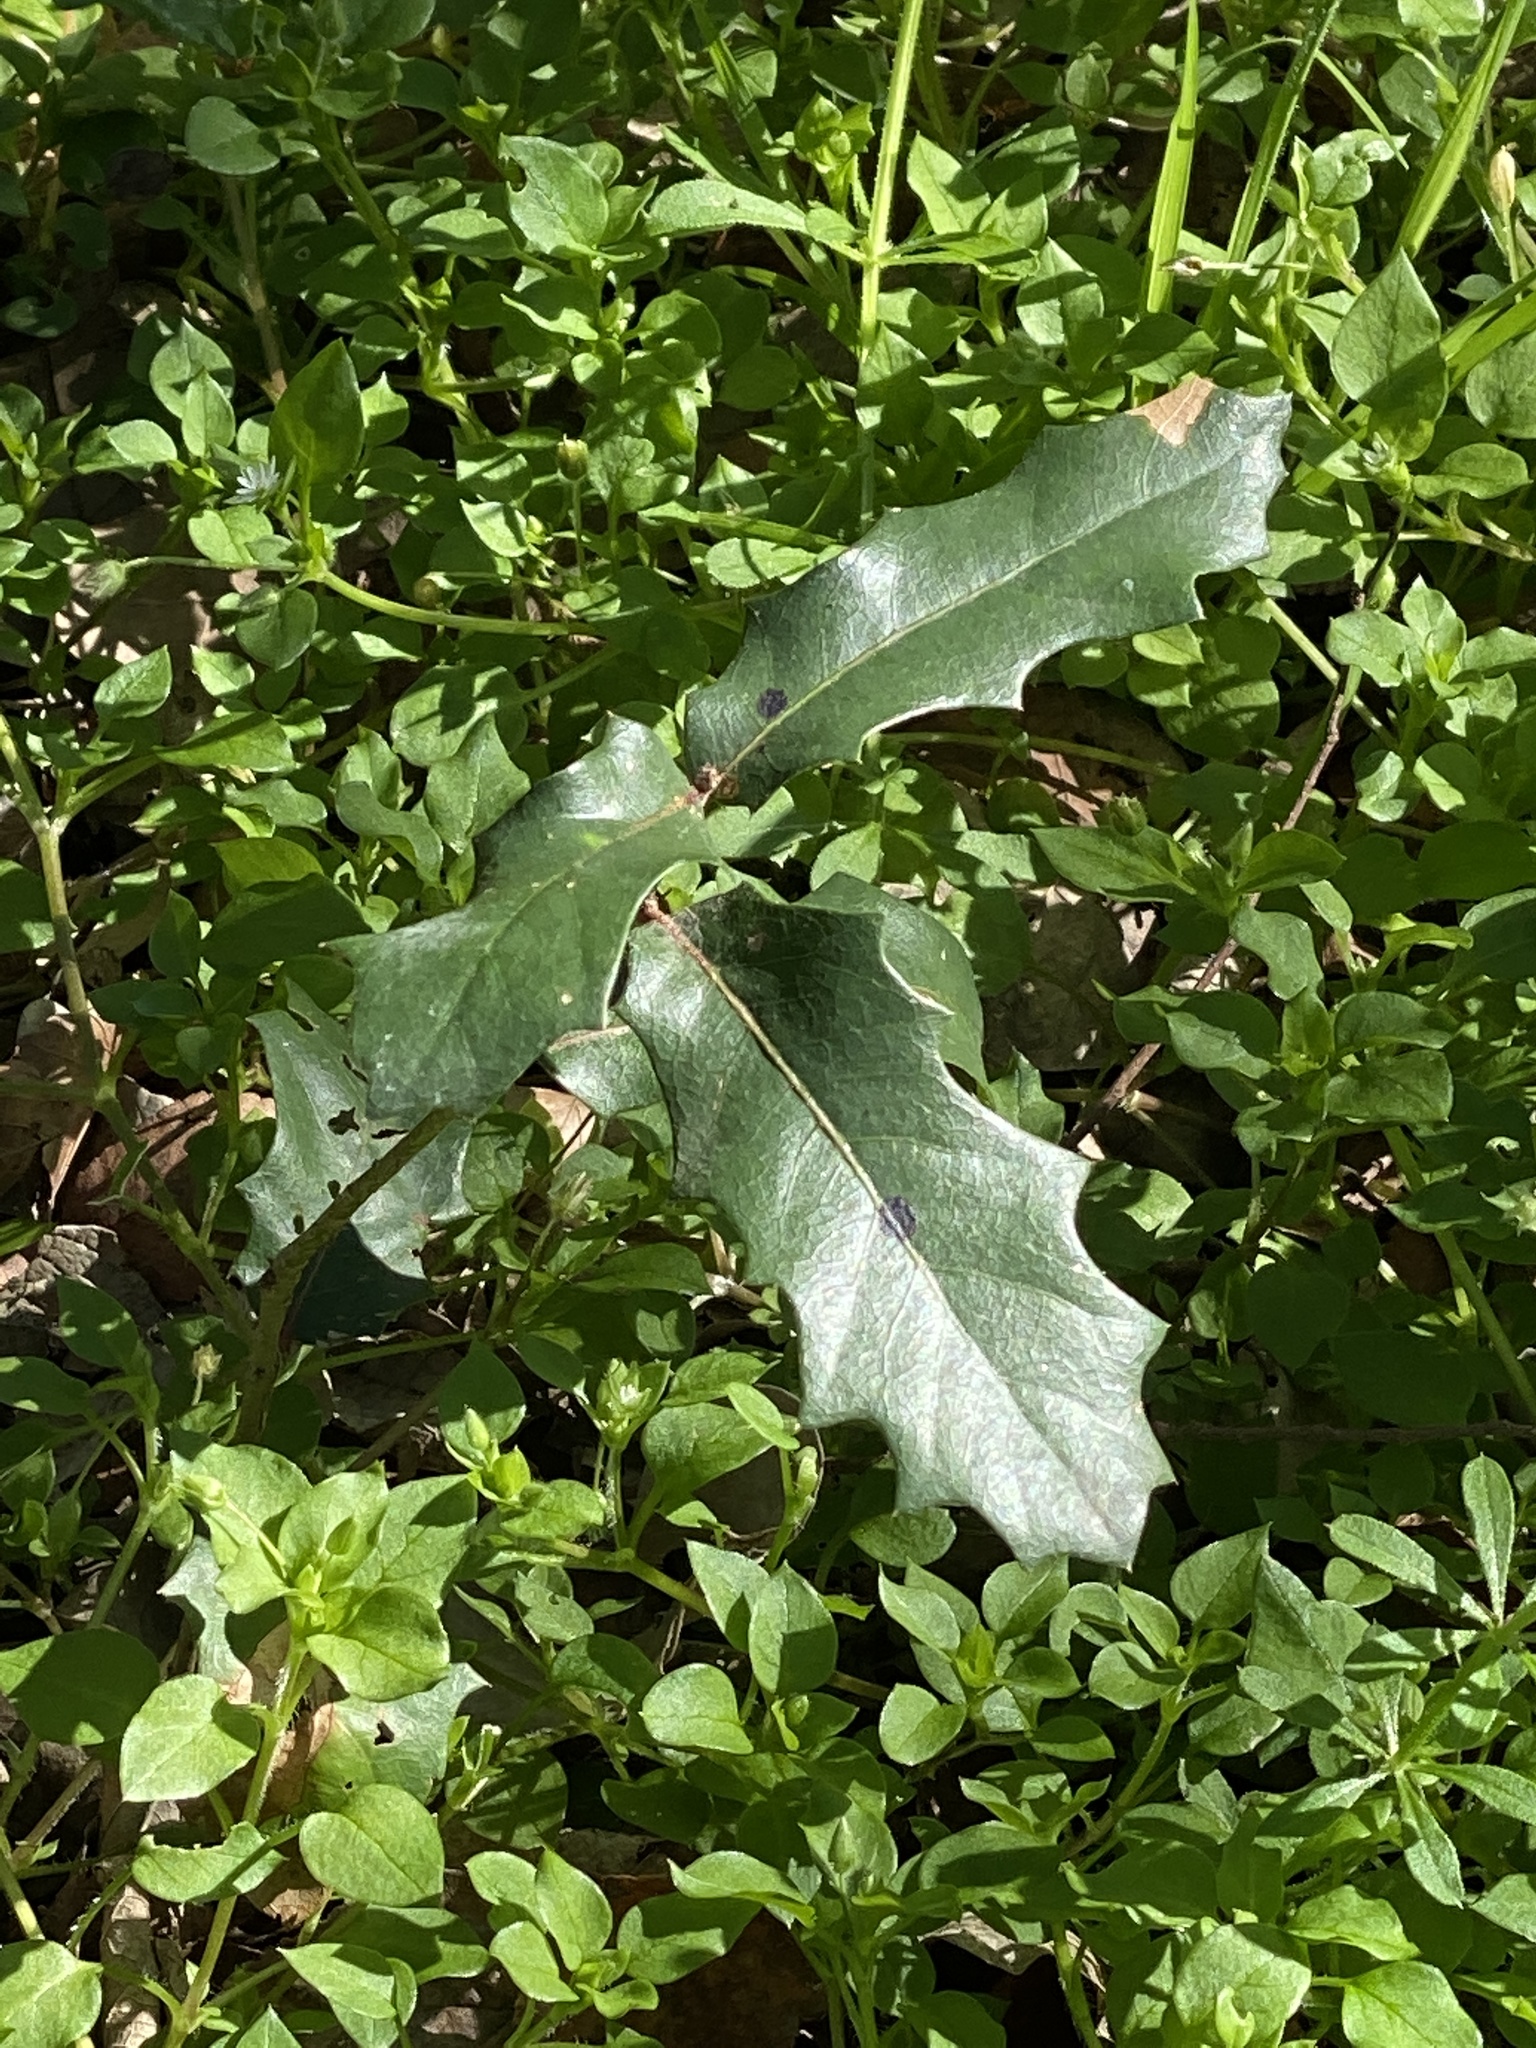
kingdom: Plantae
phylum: Tracheophyta
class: Magnoliopsida
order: Fagales
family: Fagaceae
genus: Quercus
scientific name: Quercus fusiformis
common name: Texas live oak
